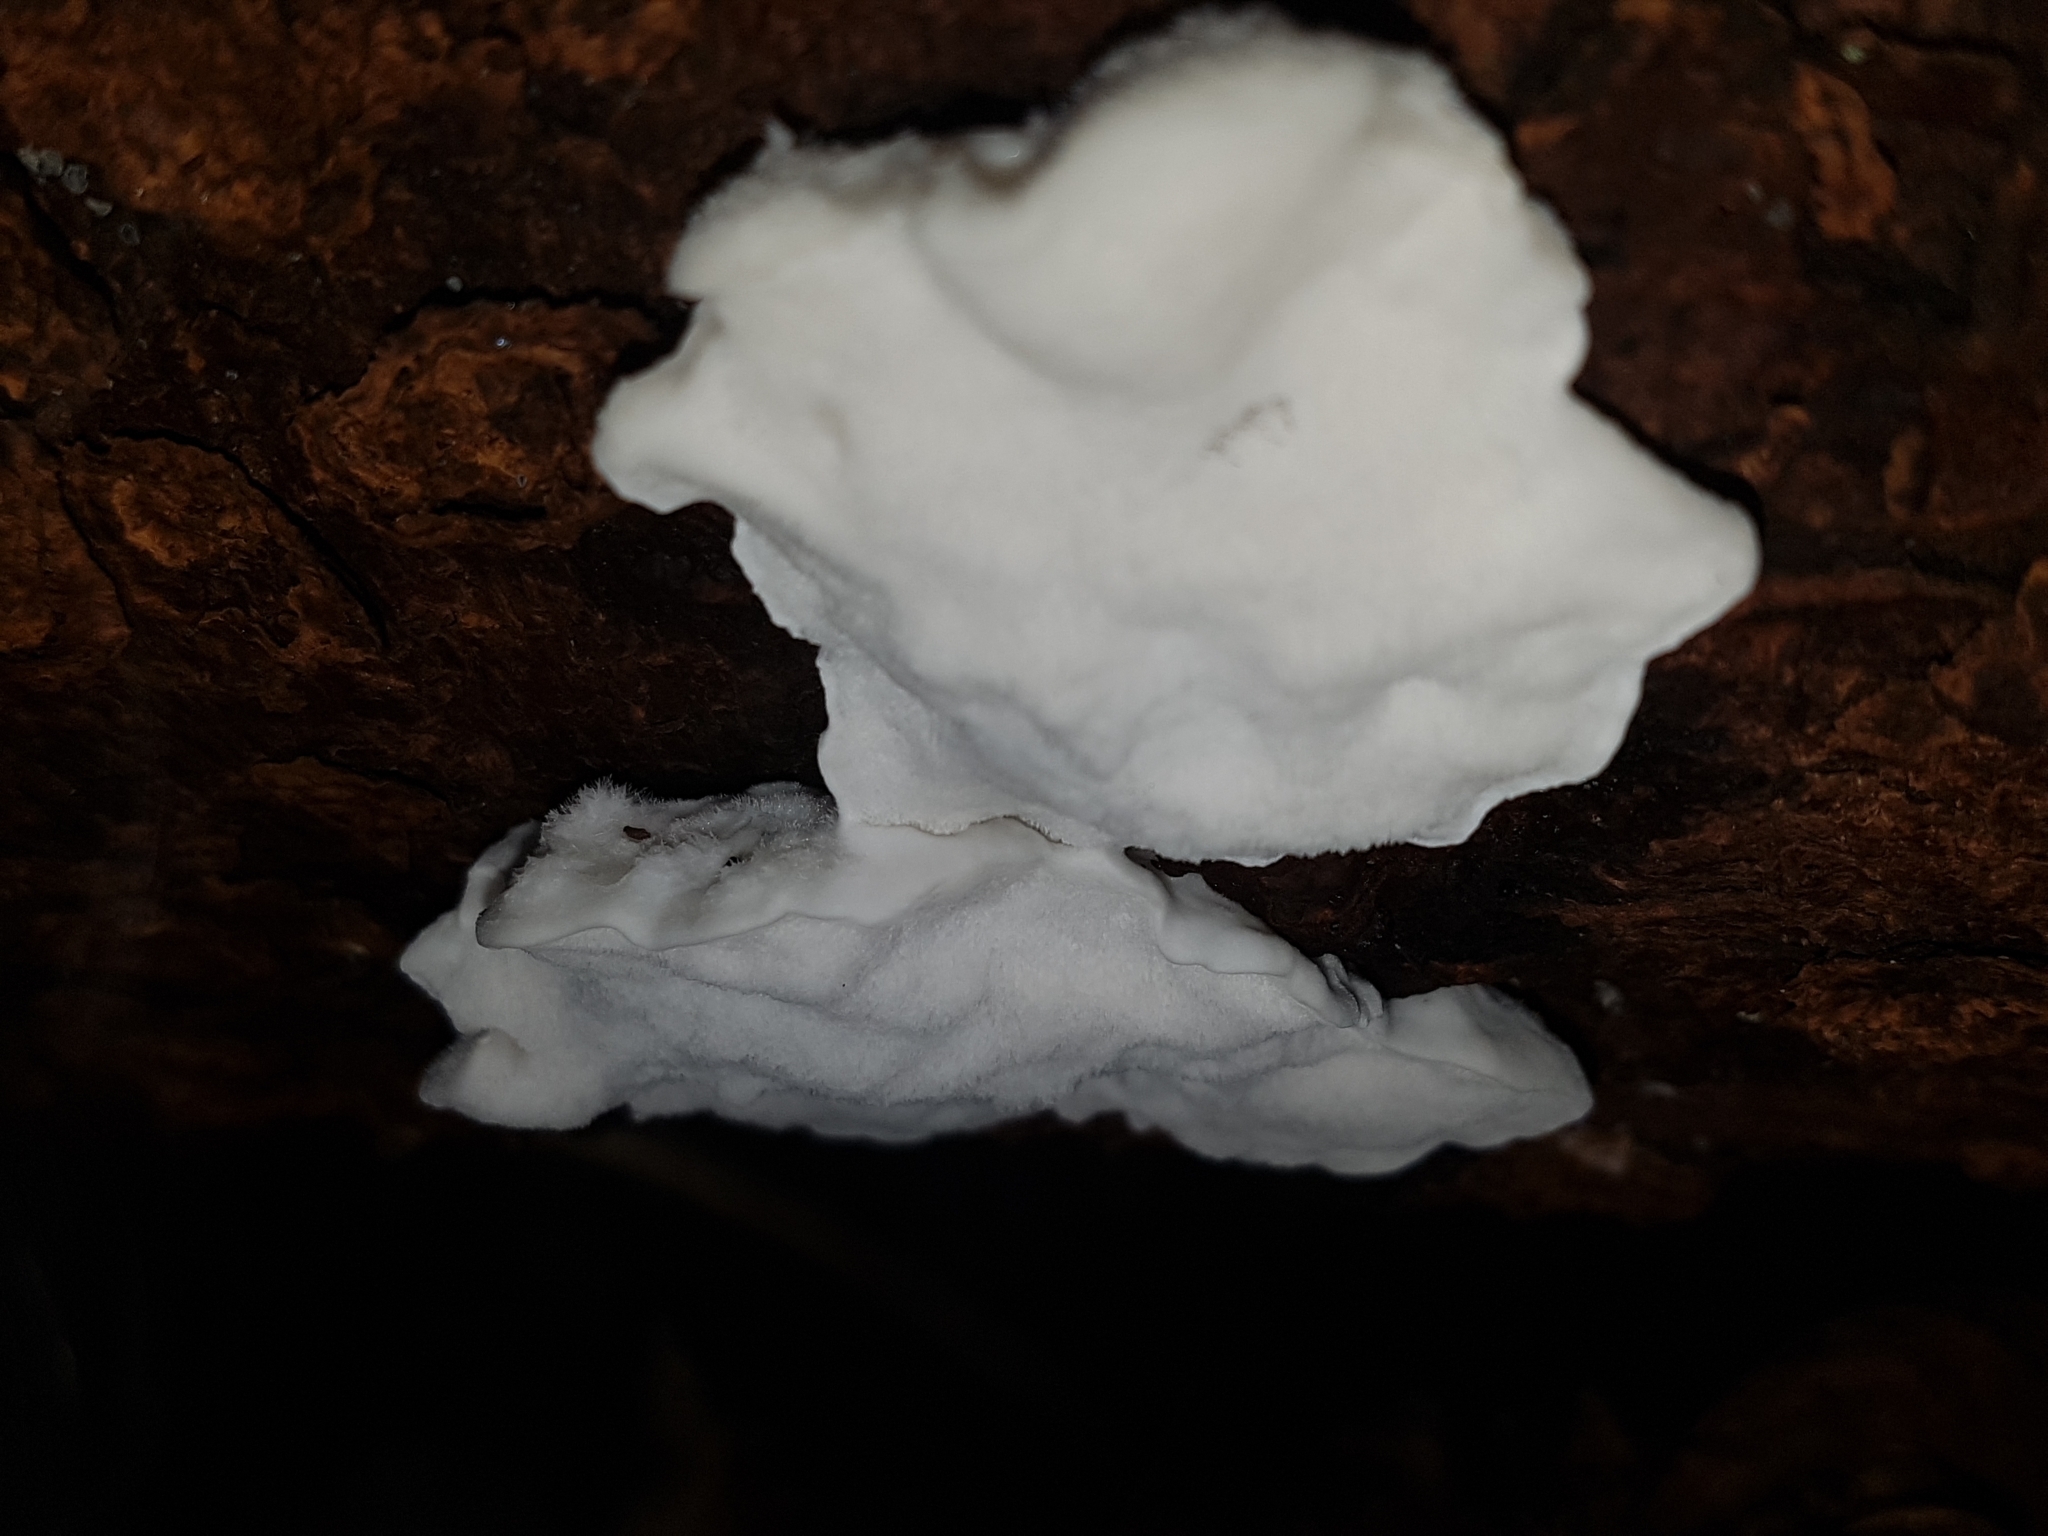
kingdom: Fungi
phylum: Basidiomycota
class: Agaricomycetes
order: Polyporales
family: Dacryobolaceae
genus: Postia
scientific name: Postia ptychogaster
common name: Powderpuff bracket
